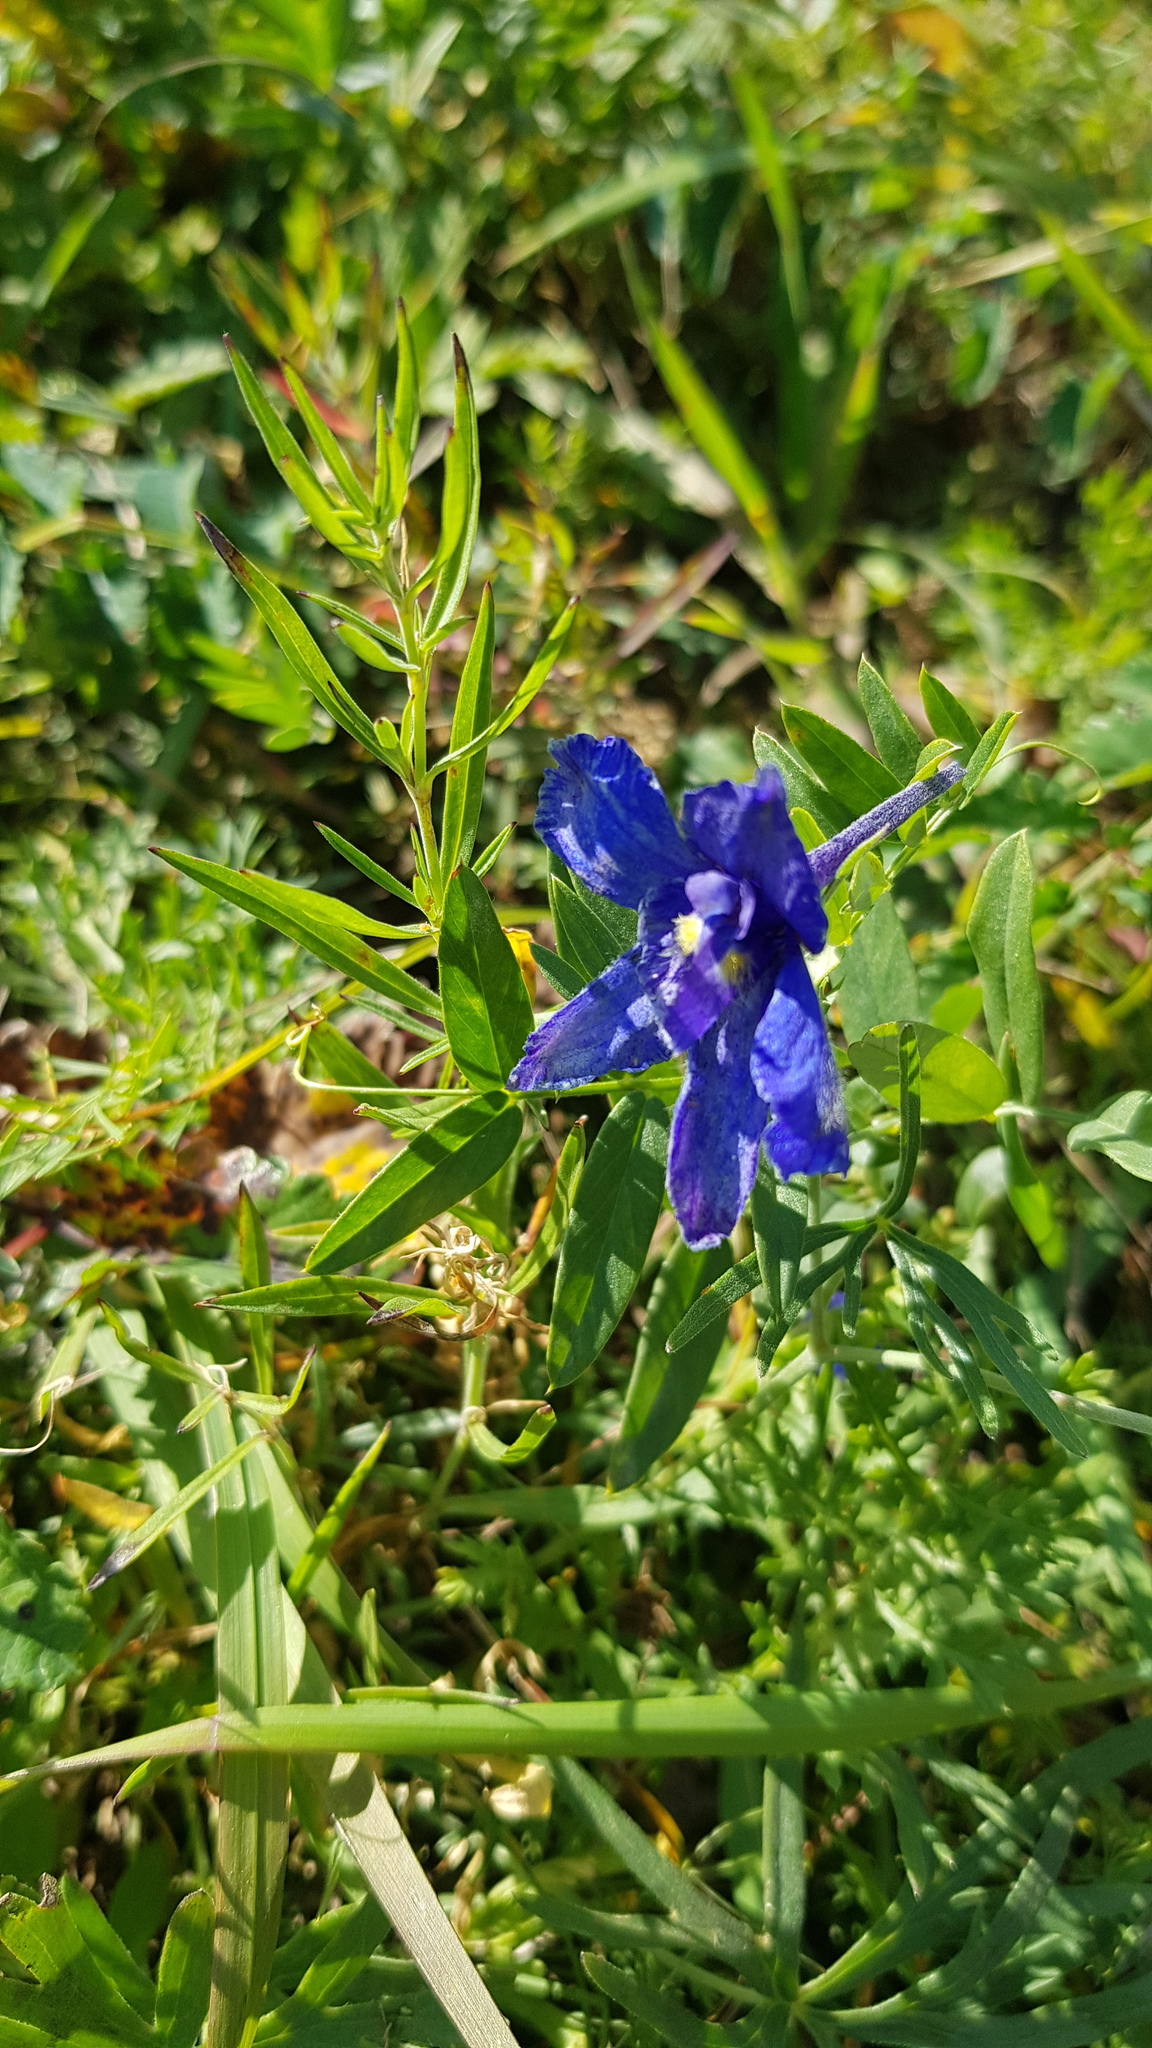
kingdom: Plantae
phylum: Tracheophyta
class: Magnoliopsida
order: Ranunculales
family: Ranunculaceae
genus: Delphinium
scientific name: Delphinium grandiflorum
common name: Siberian larkspur
